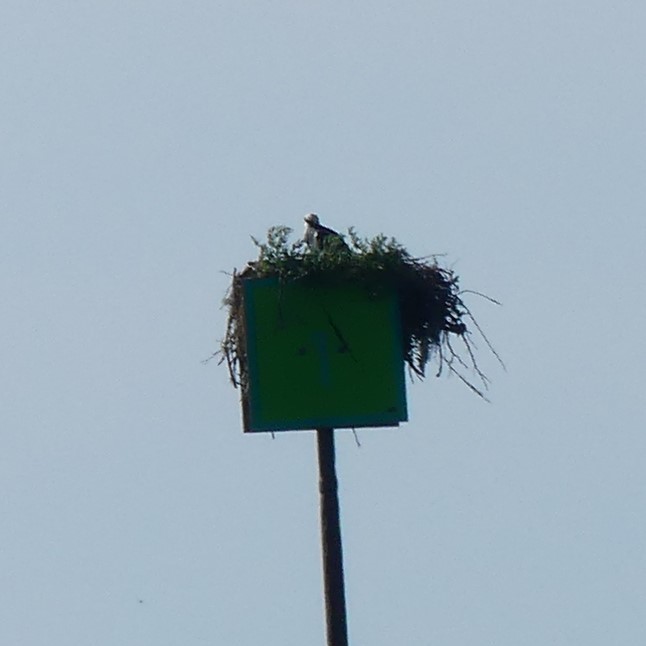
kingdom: Animalia
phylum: Chordata
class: Aves
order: Accipitriformes
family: Pandionidae
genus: Pandion
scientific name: Pandion haliaetus
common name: Osprey
